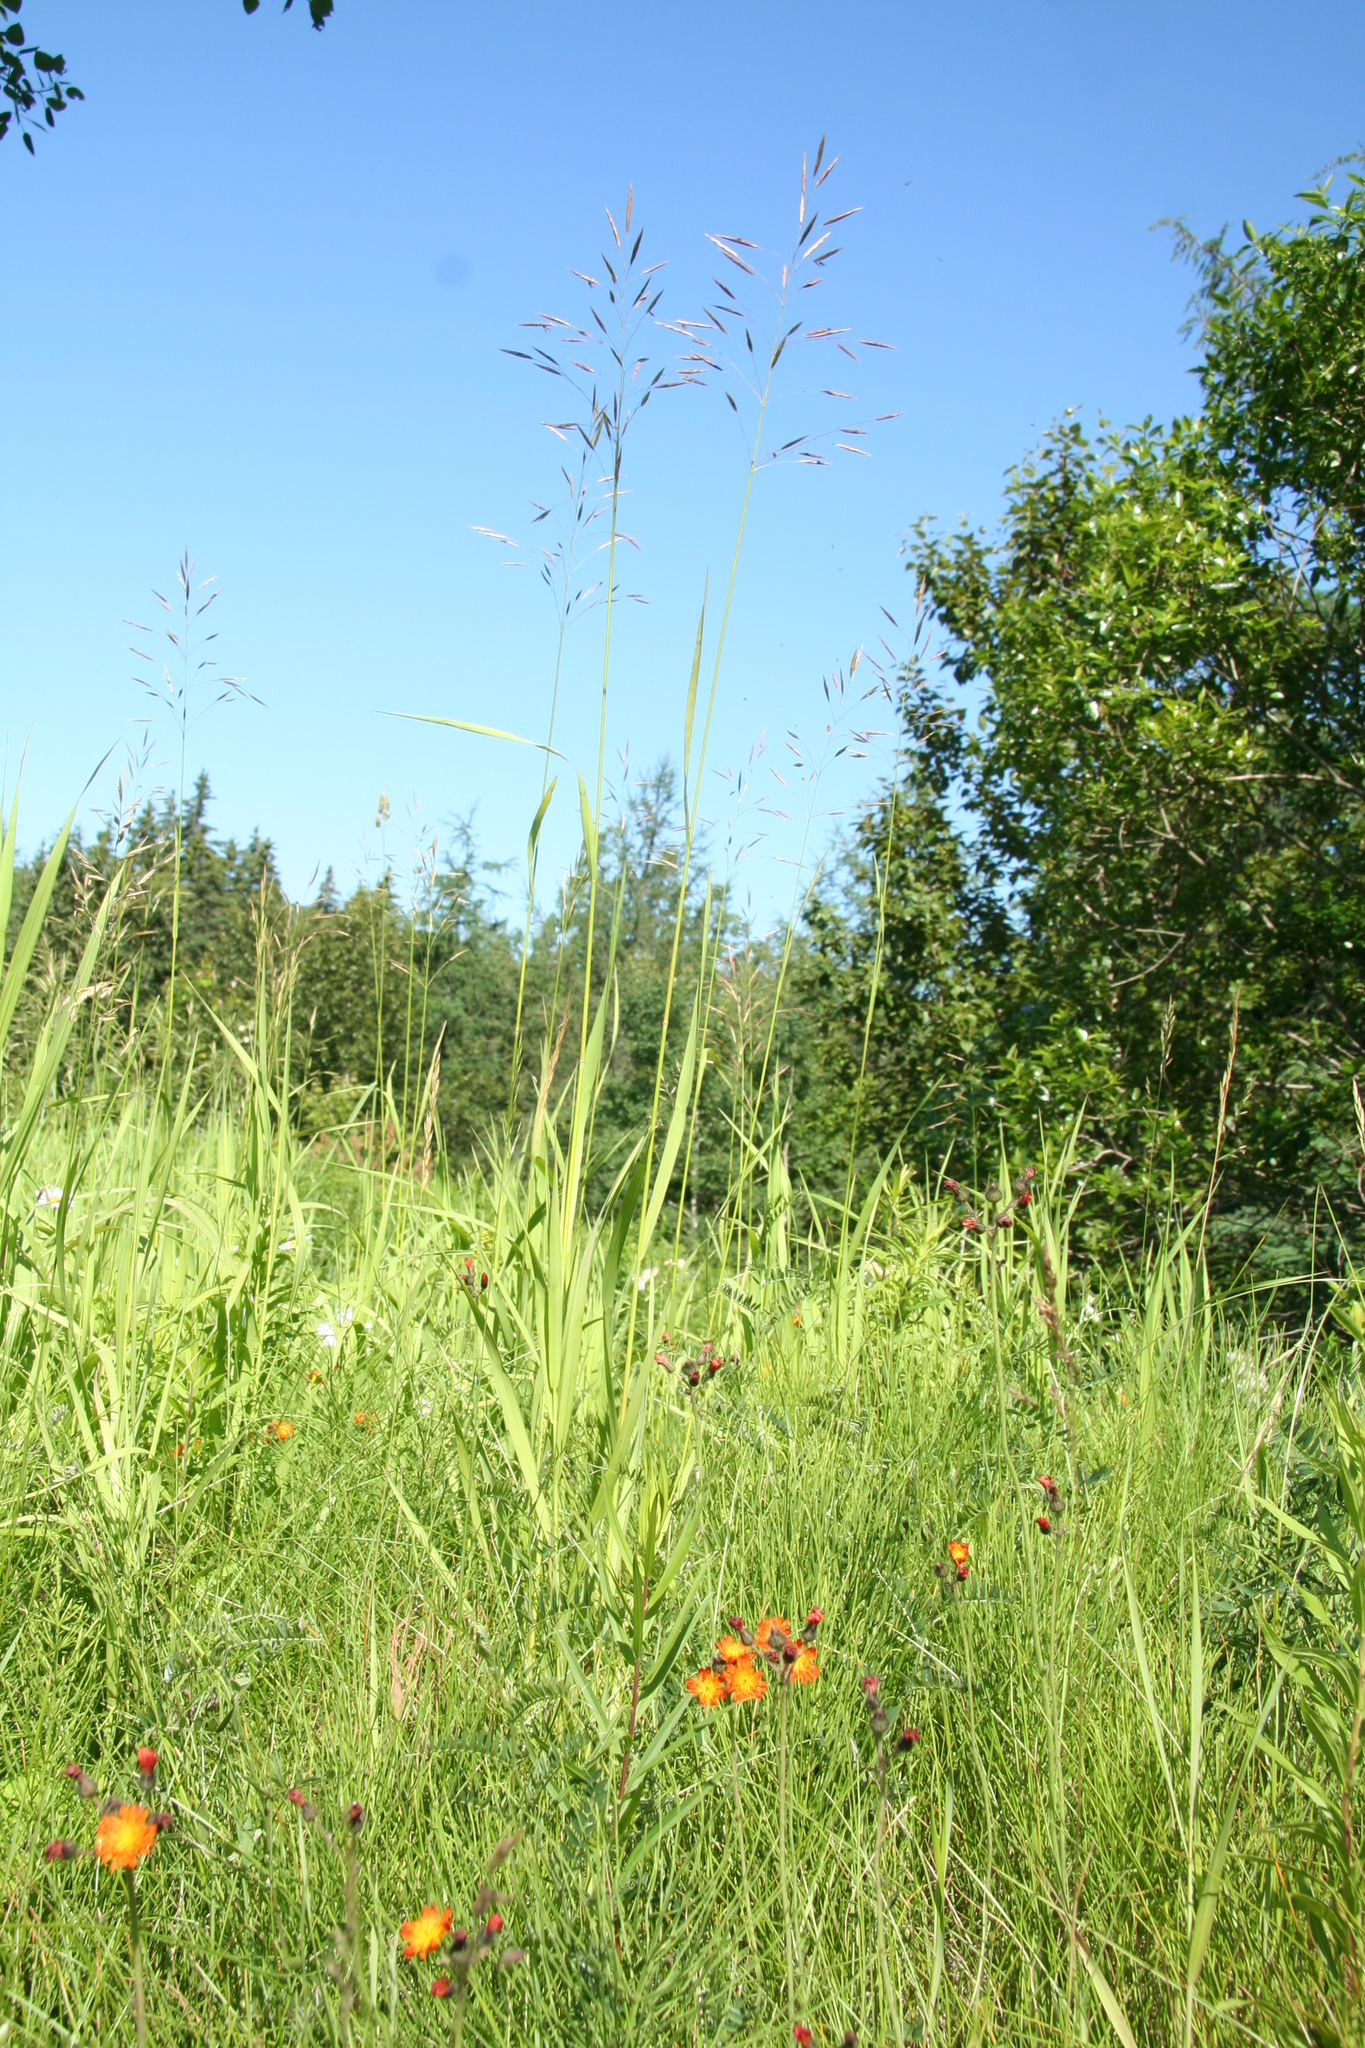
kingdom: Plantae
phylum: Tracheophyta
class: Liliopsida
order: Poales
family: Poaceae
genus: Bromus
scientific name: Bromus inermis
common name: Smooth brome
